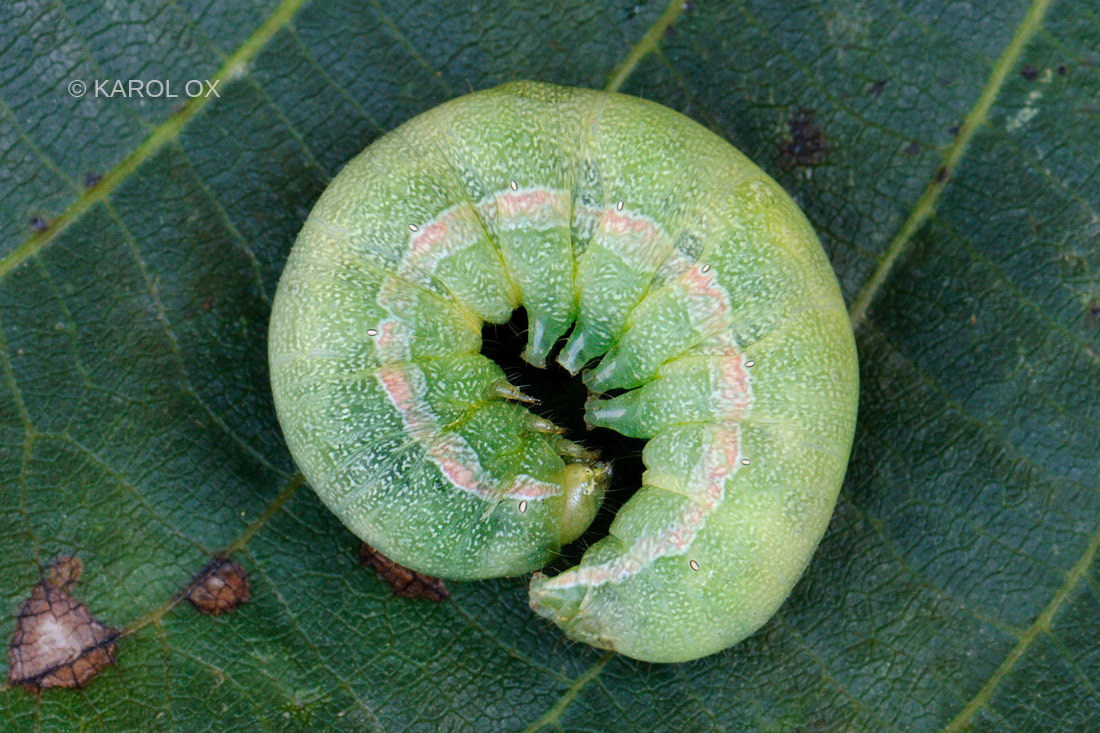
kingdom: Animalia
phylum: Arthropoda
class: Insecta
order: Lepidoptera
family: Noctuidae
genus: Anarta
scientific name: Anarta trifolii
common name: Clover cutworm moth
